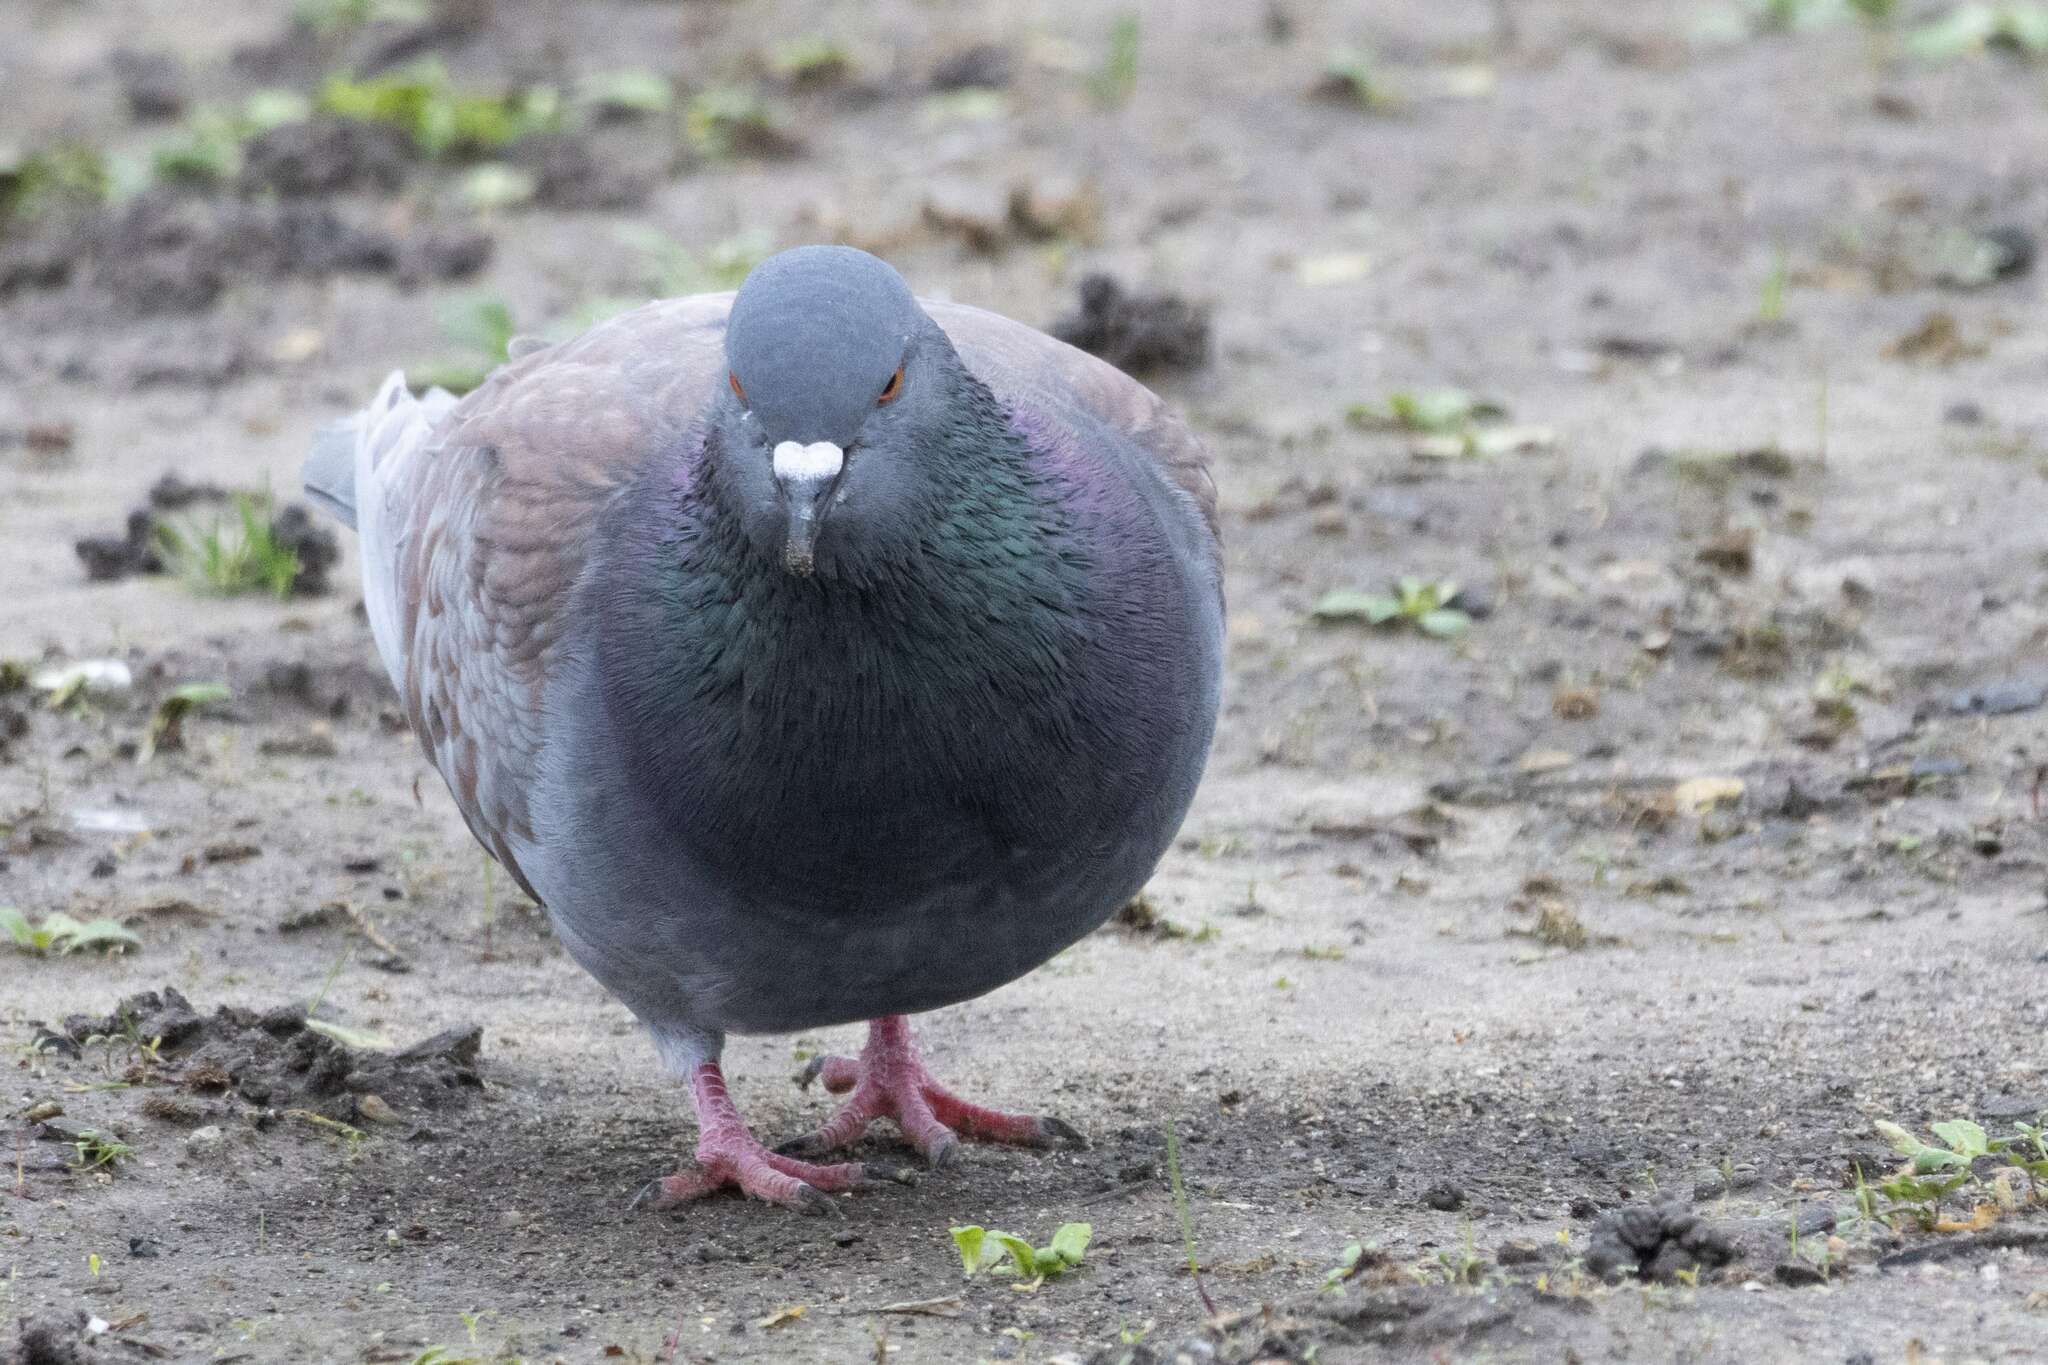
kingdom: Animalia
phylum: Chordata
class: Aves
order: Columbiformes
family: Columbidae
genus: Columba
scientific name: Columba livia
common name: Rock pigeon
